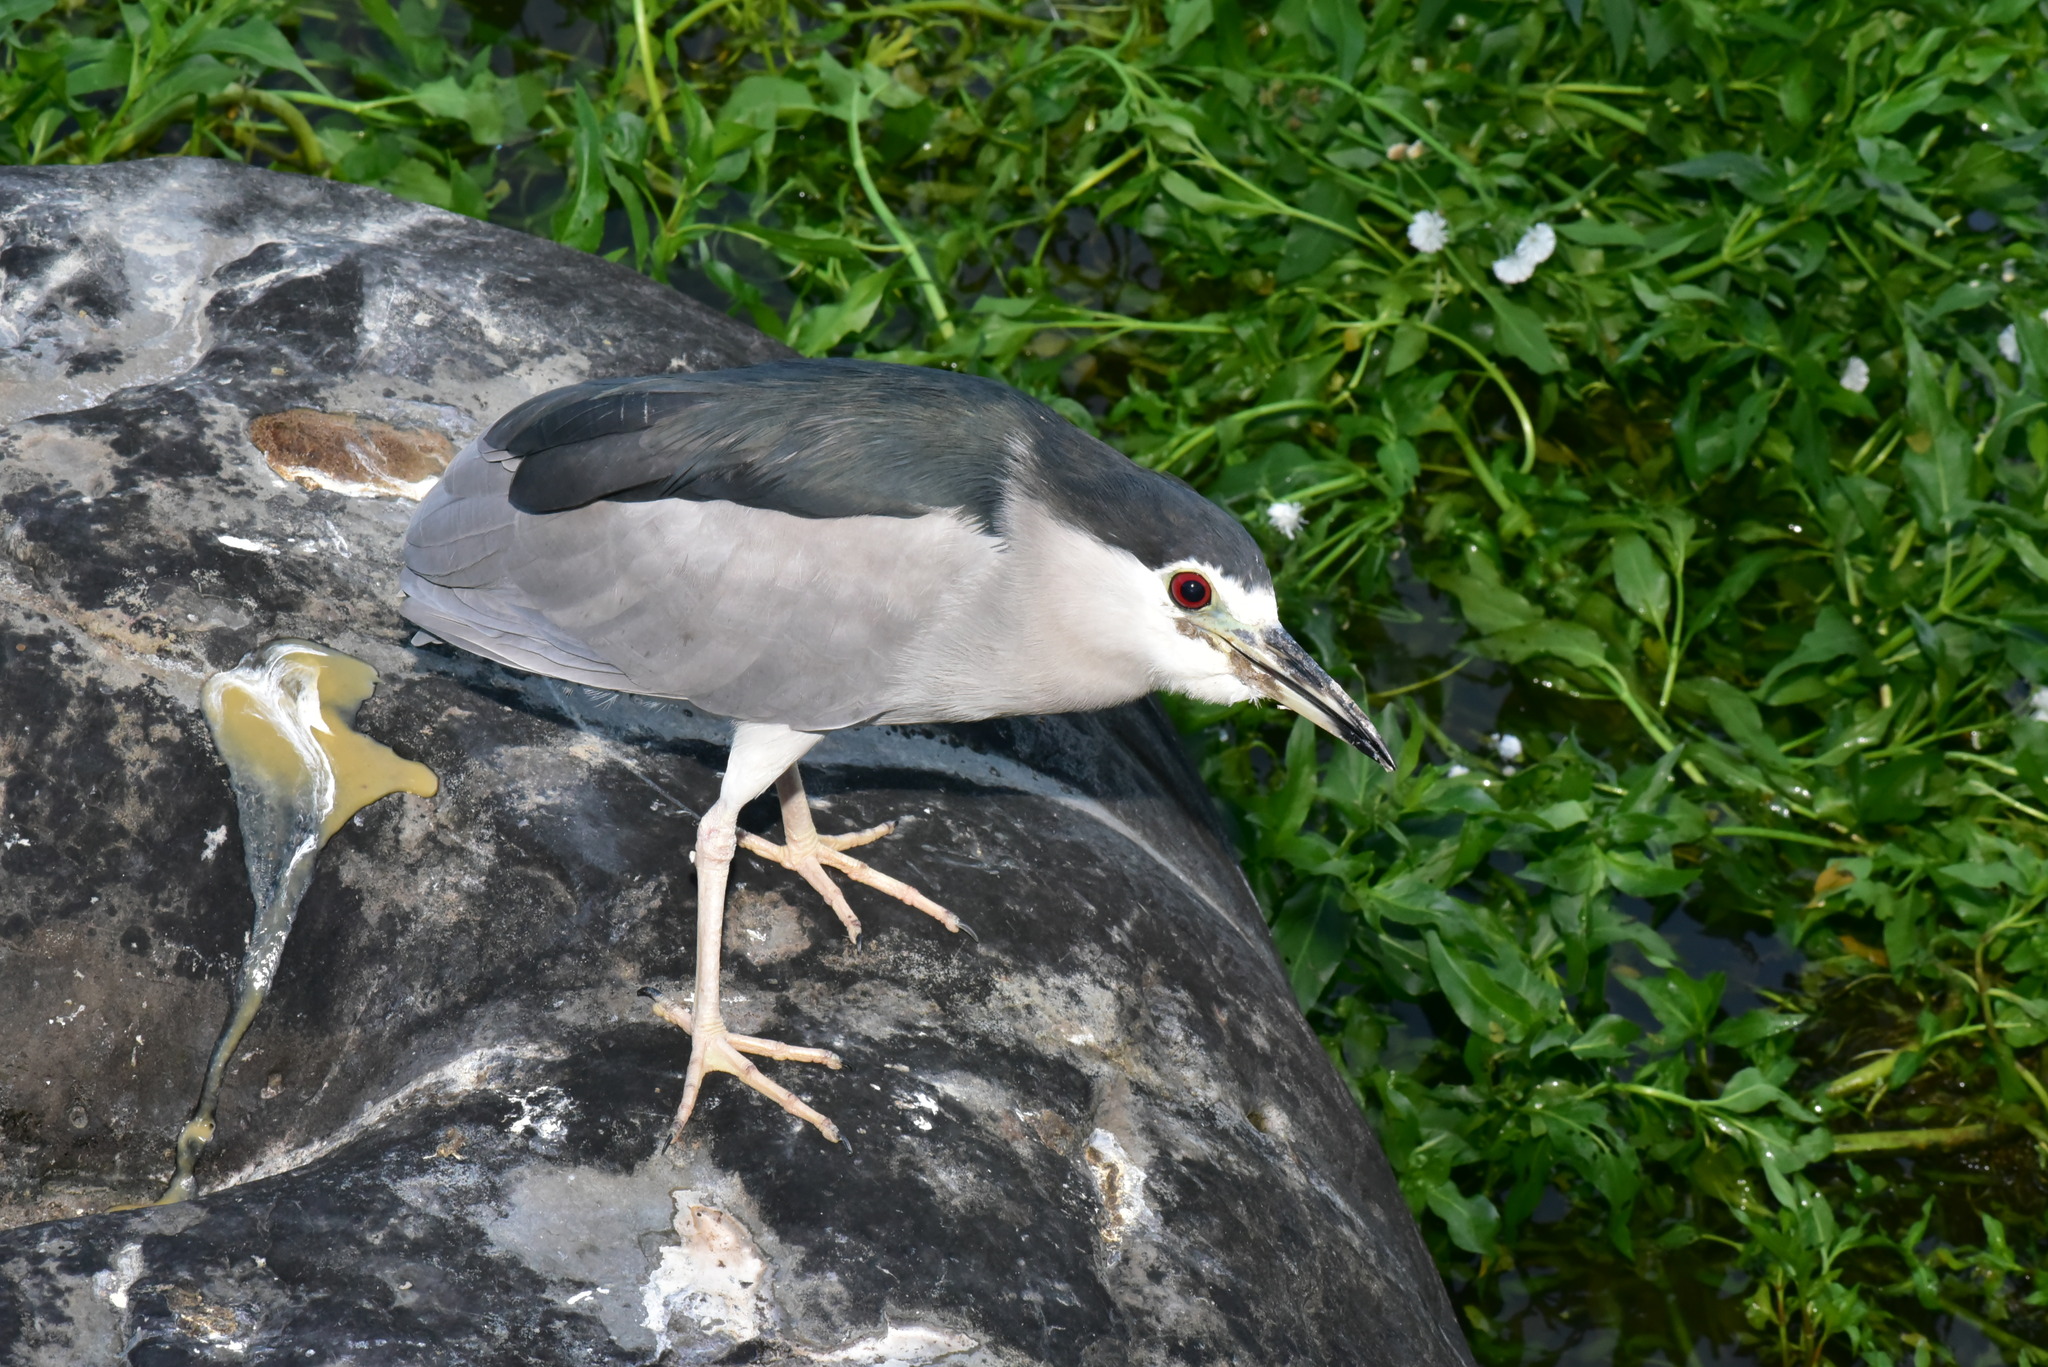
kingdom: Animalia
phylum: Chordata
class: Aves
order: Pelecaniformes
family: Ardeidae
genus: Nycticorax
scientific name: Nycticorax nycticorax
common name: Black-crowned night heron
